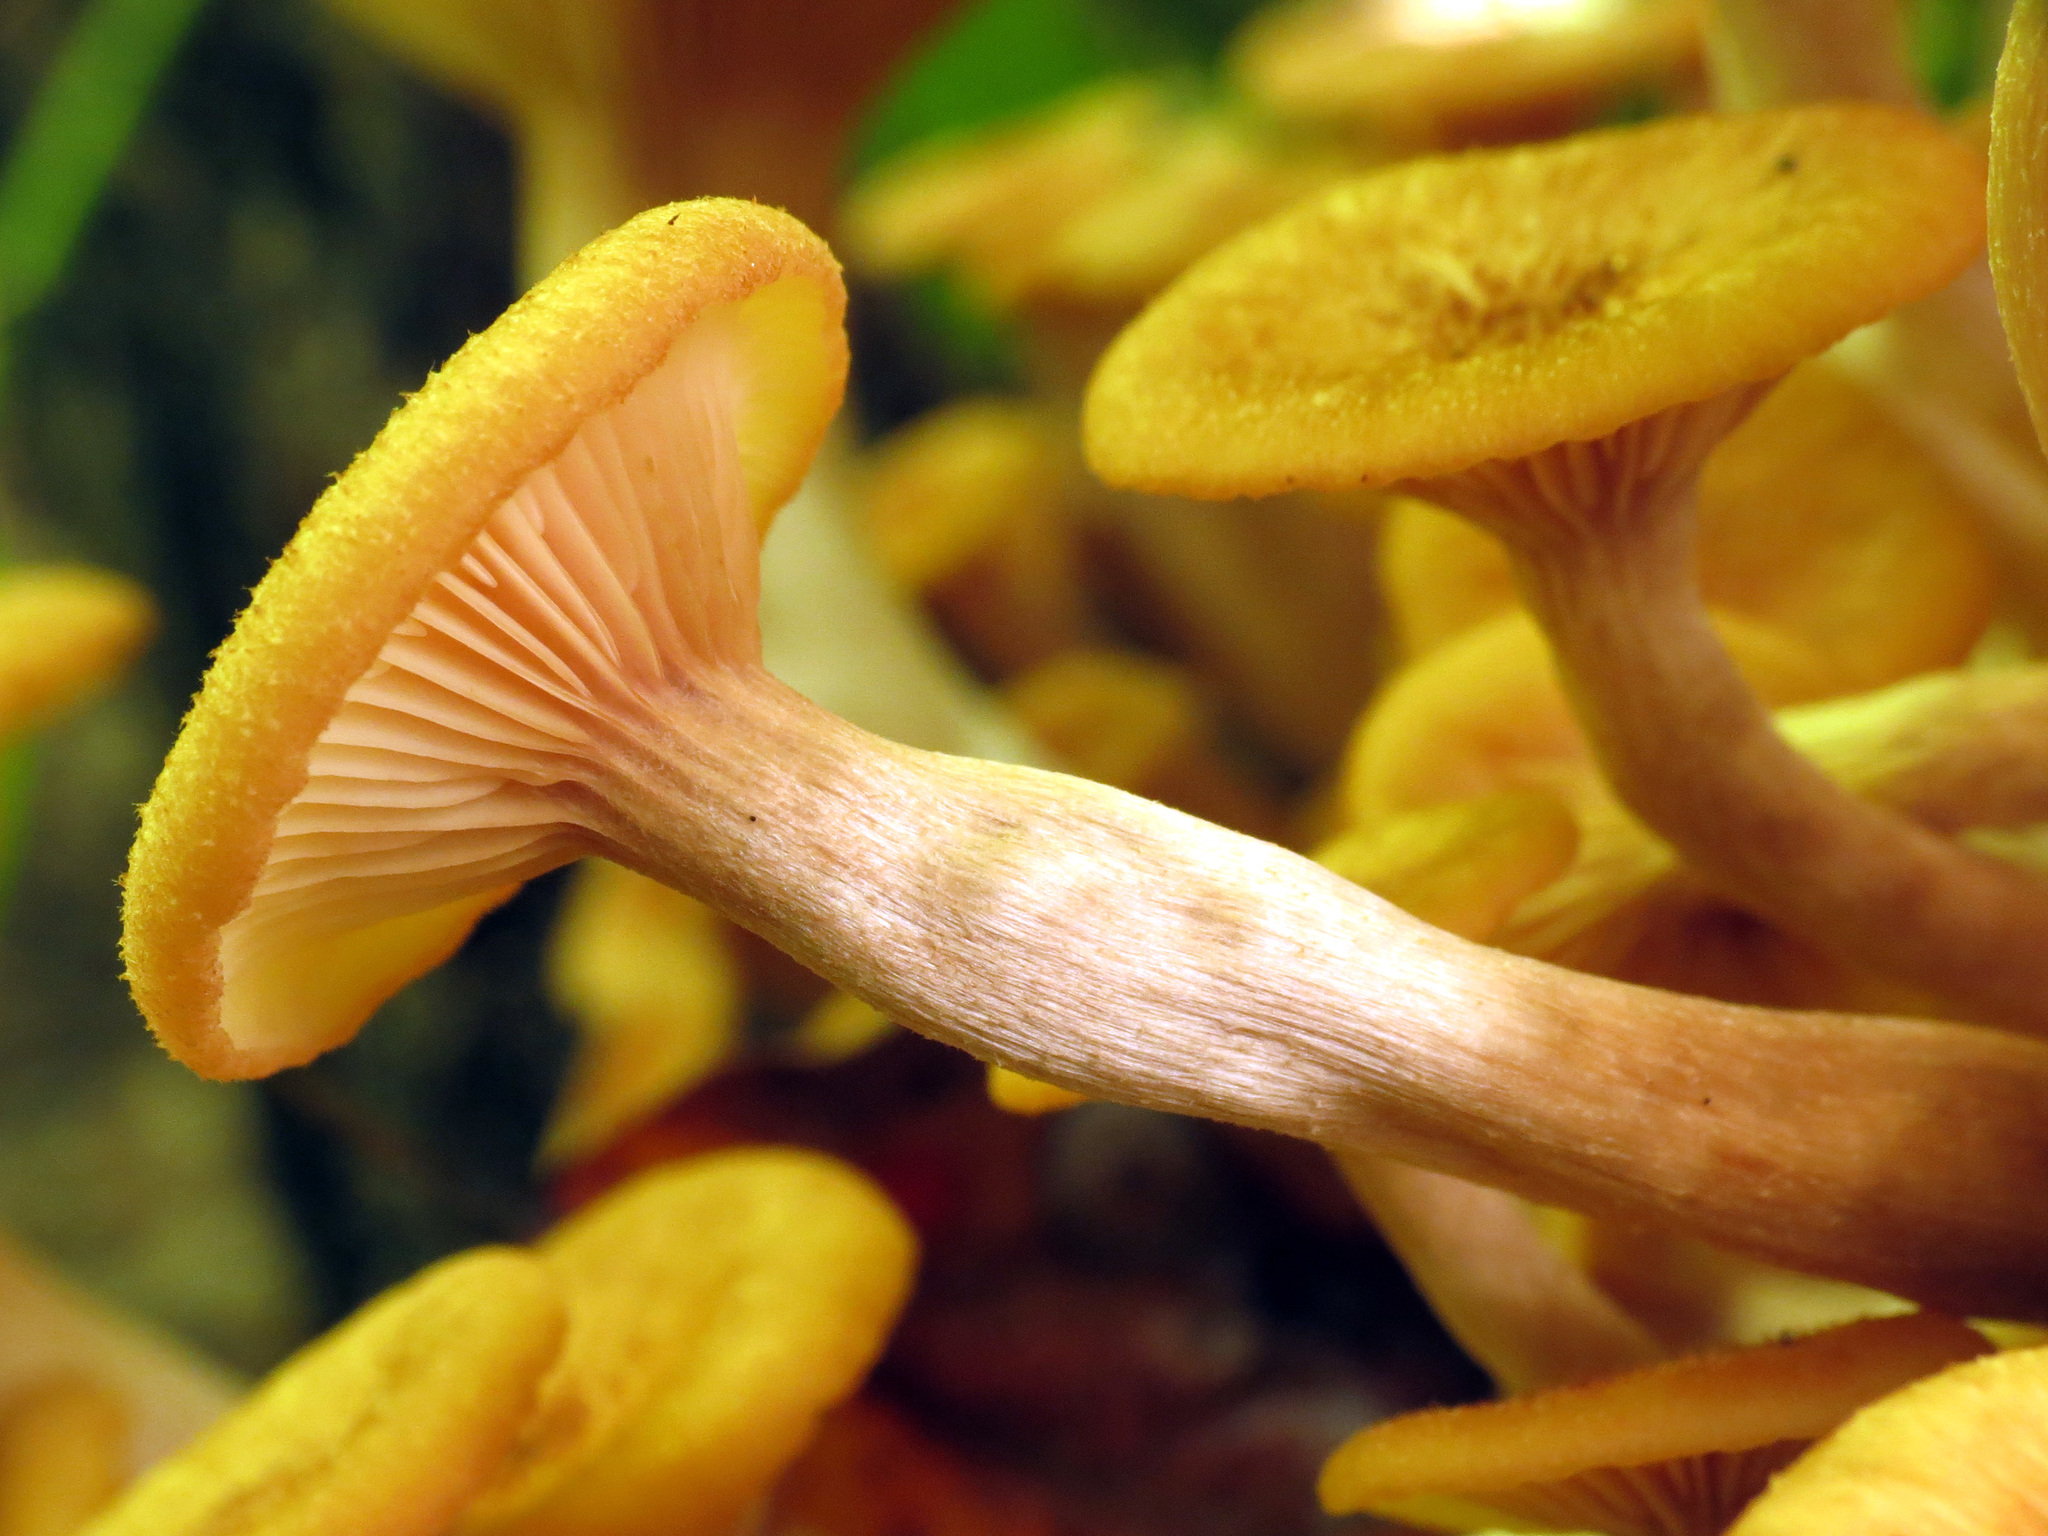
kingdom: Fungi
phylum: Basidiomycota
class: Agaricomycetes
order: Agaricales
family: Physalacriaceae
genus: Desarmillaria
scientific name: Desarmillaria caespitosa
